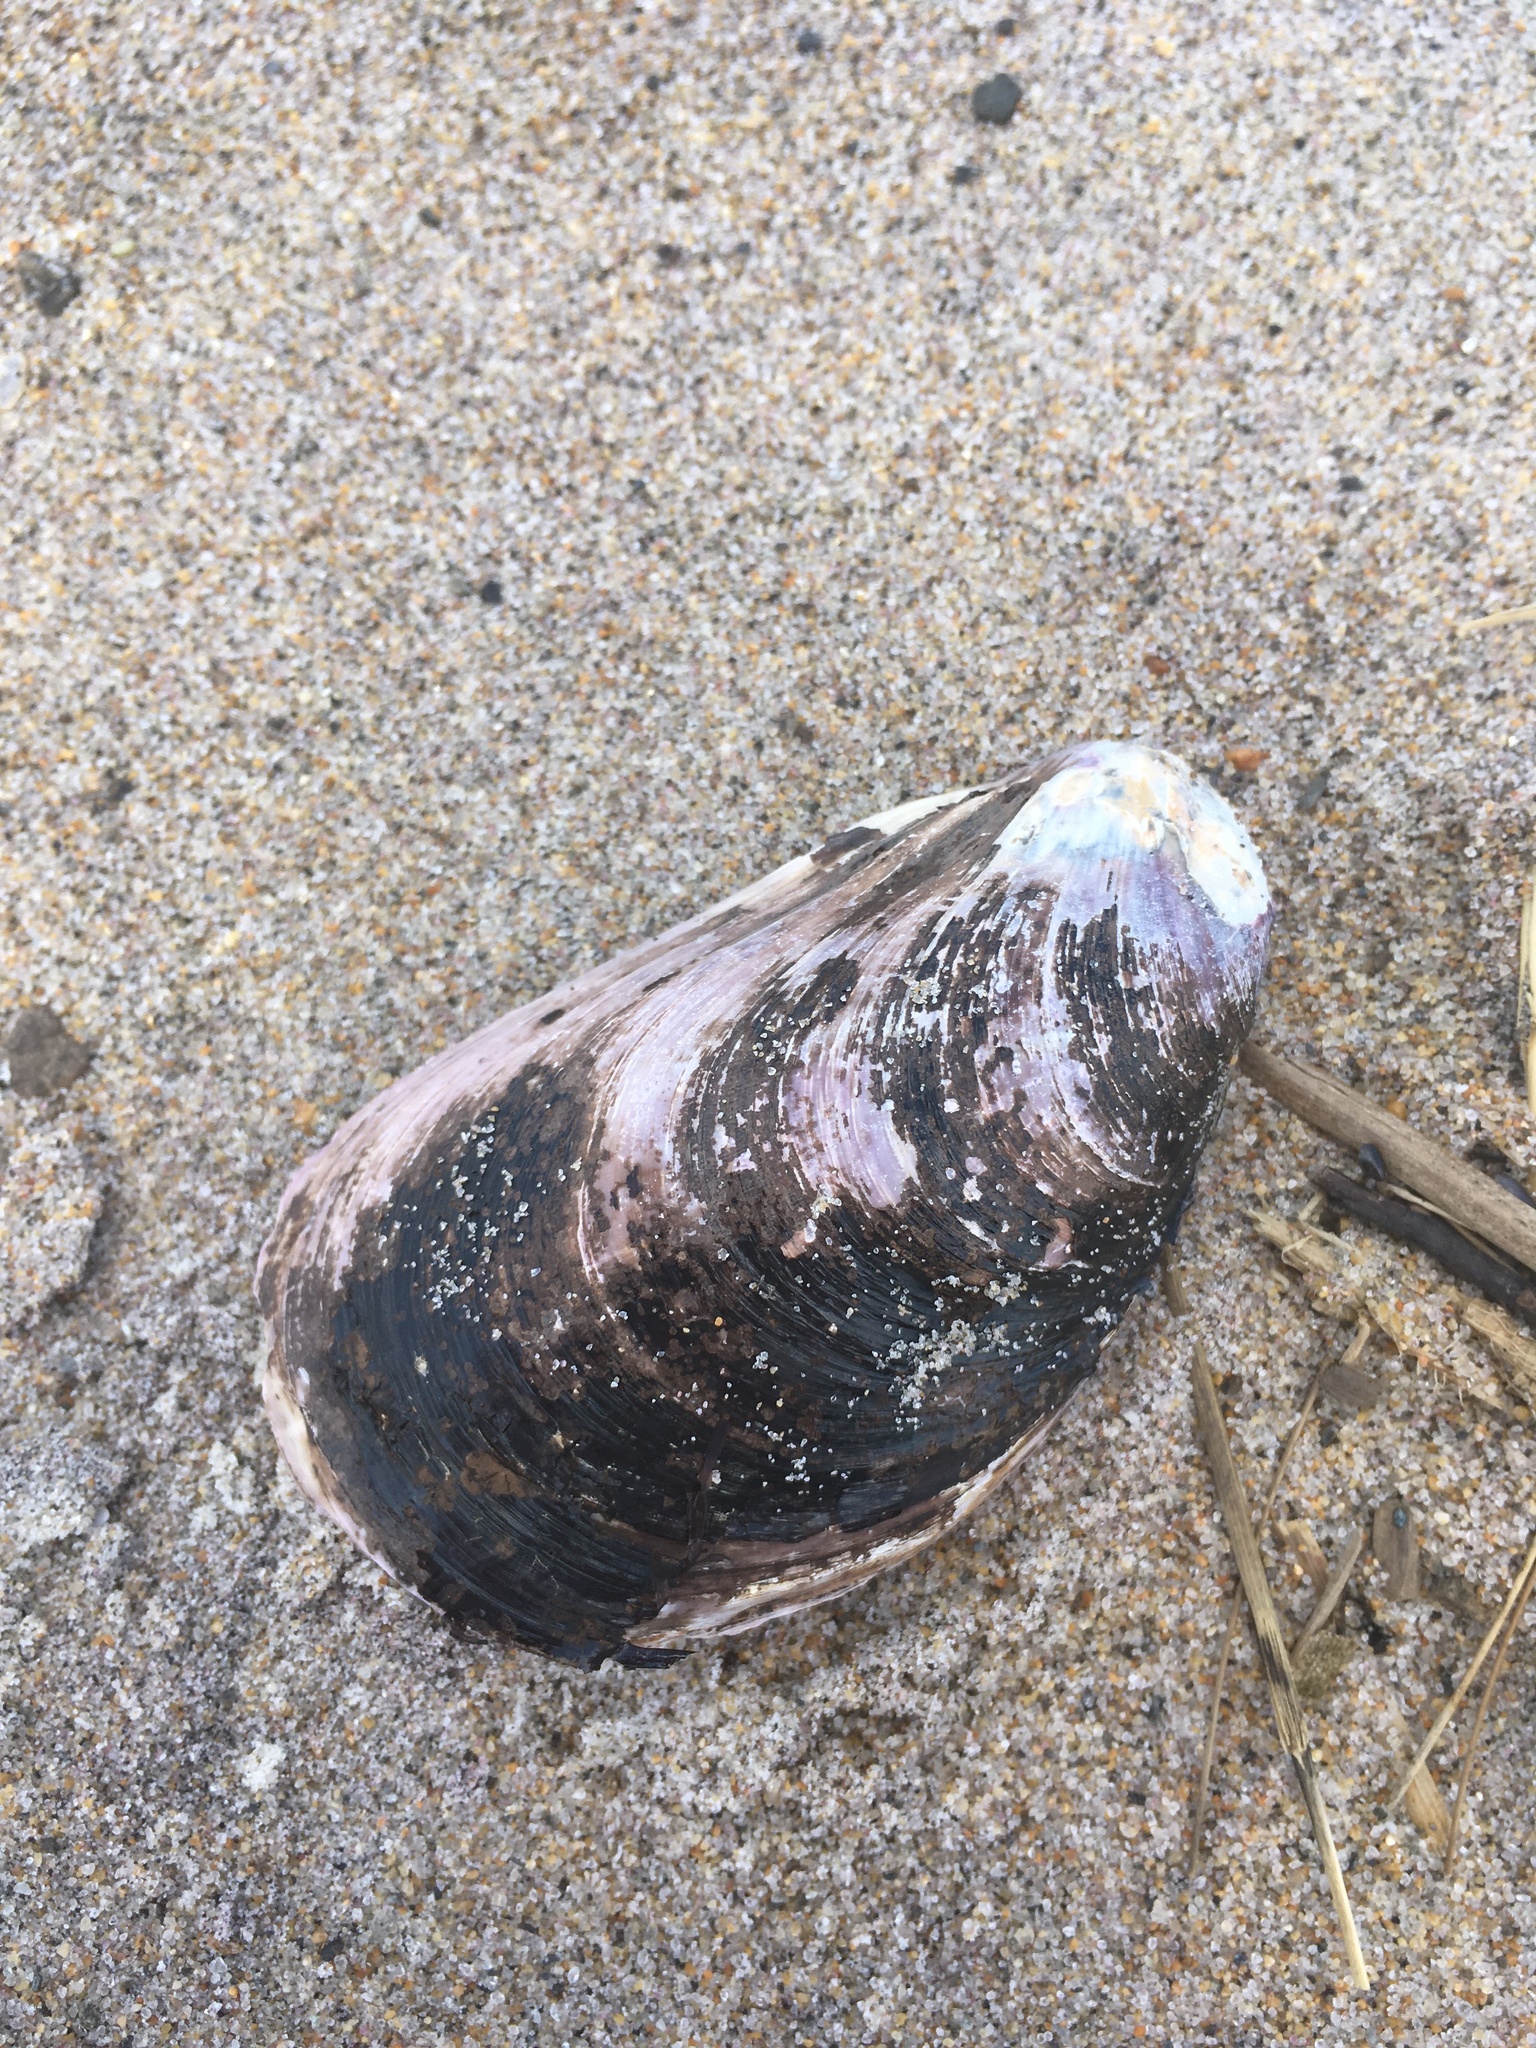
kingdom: Animalia
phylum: Mollusca
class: Bivalvia
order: Mytilida
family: Mytilidae
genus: Modiolus
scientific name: Modiolus modiolus
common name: Horse-mussel
